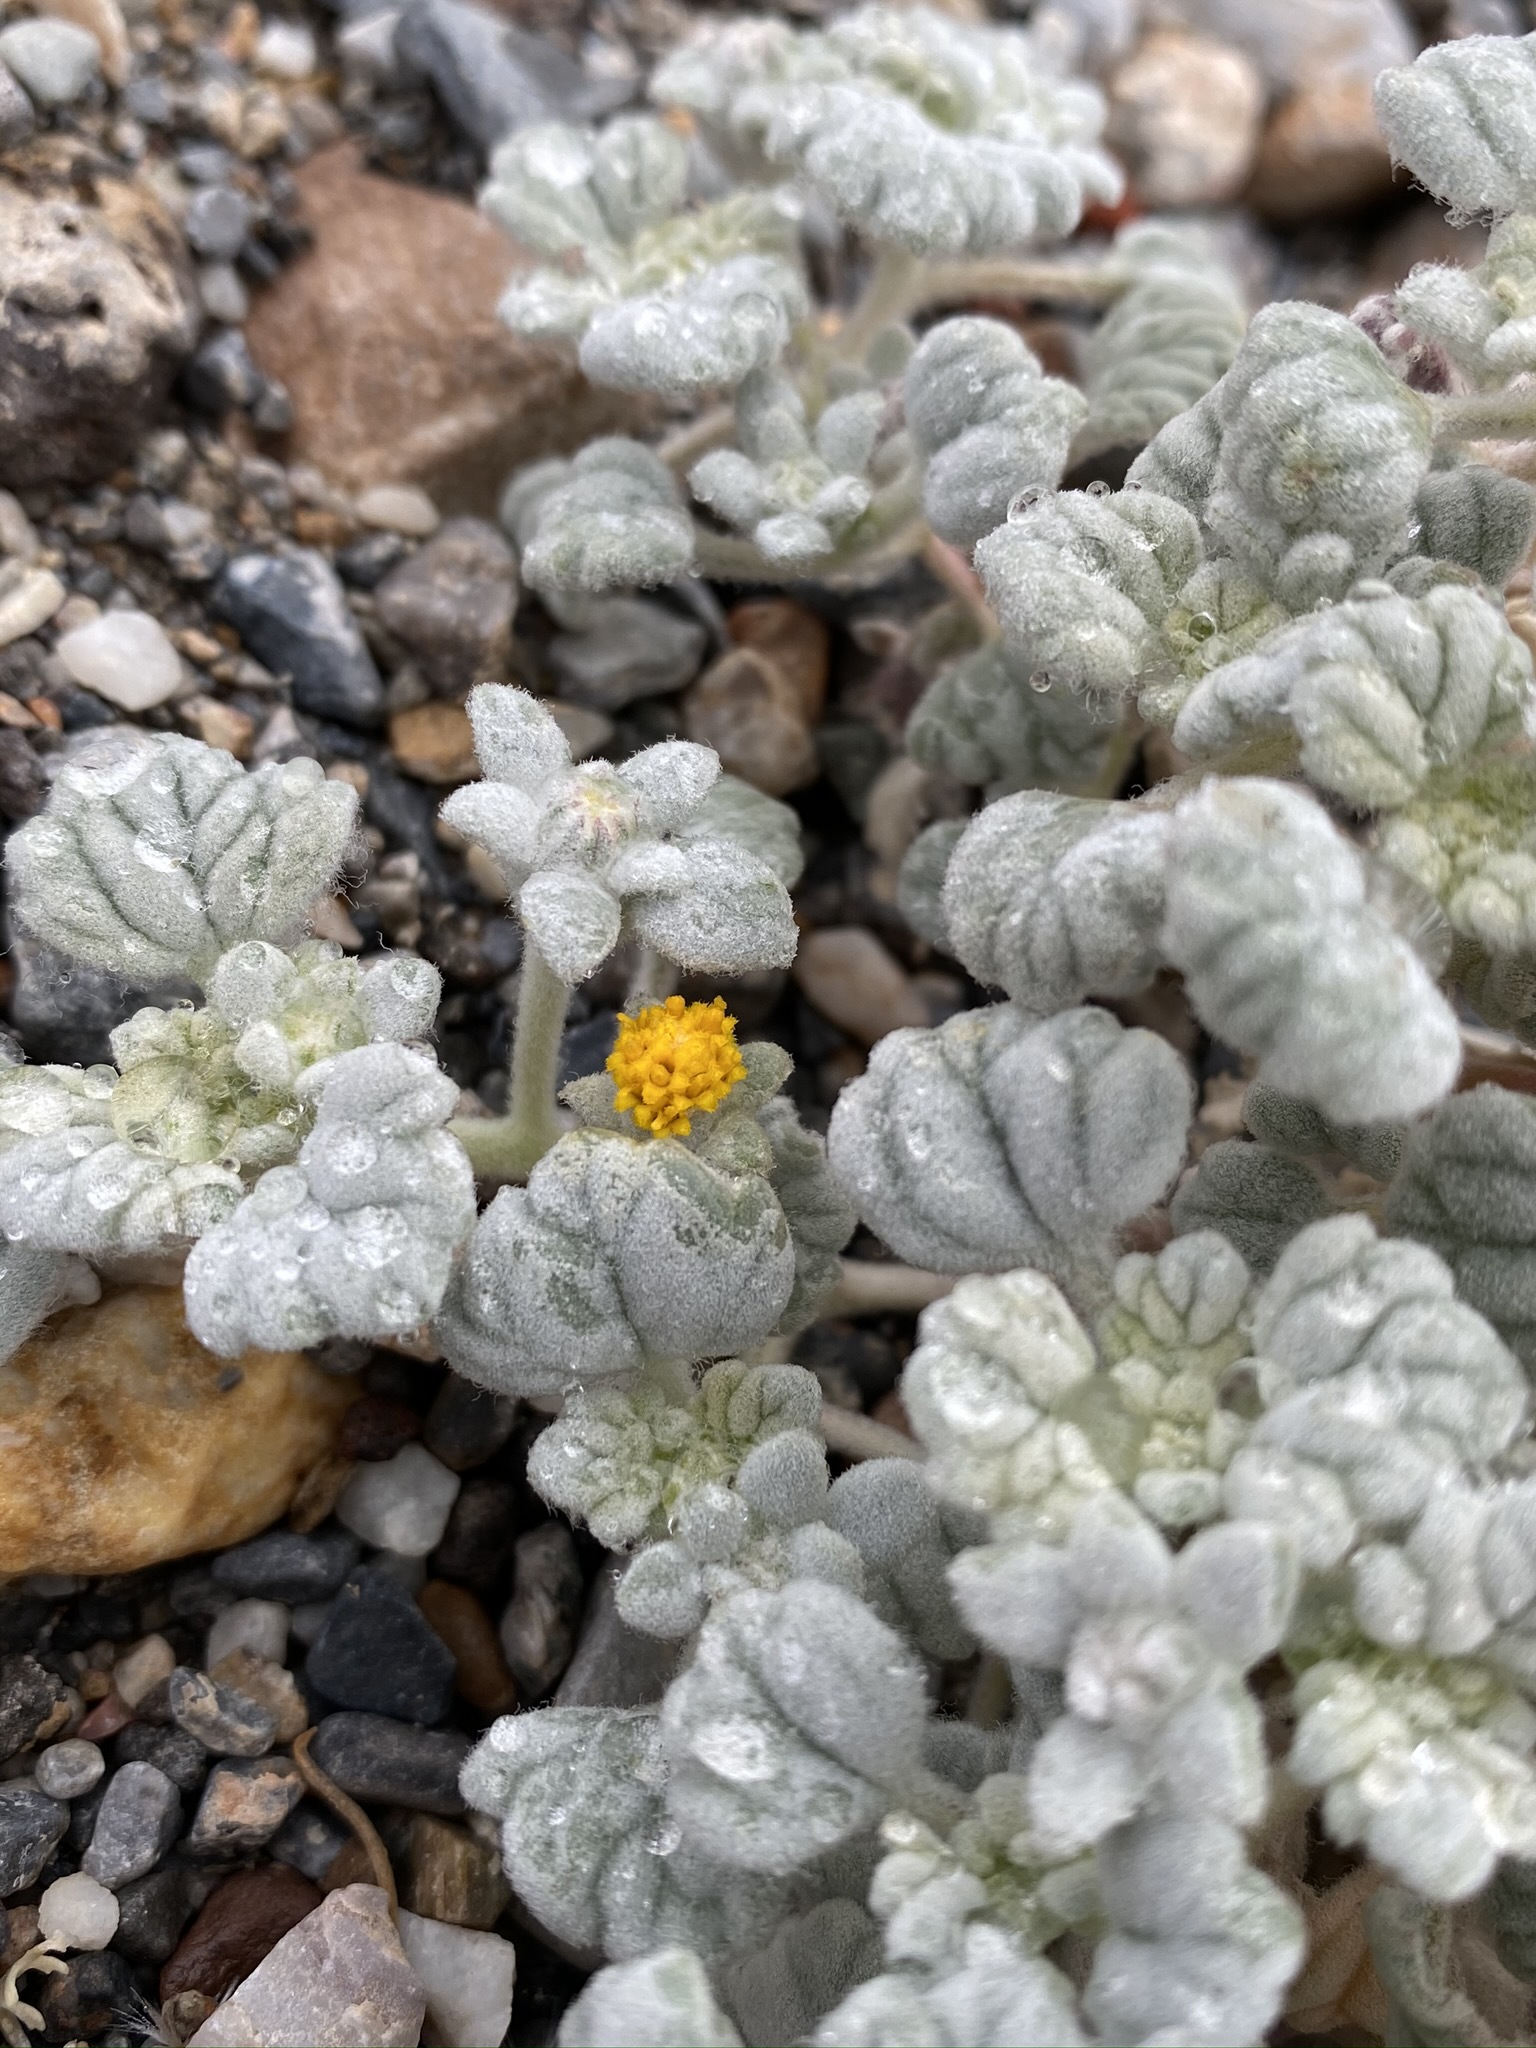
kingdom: Plantae
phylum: Tracheophyta
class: Magnoliopsida
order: Asterales
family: Asteraceae
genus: Psathyrotes
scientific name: Psathyrotes ramosissima
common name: Turtleback
